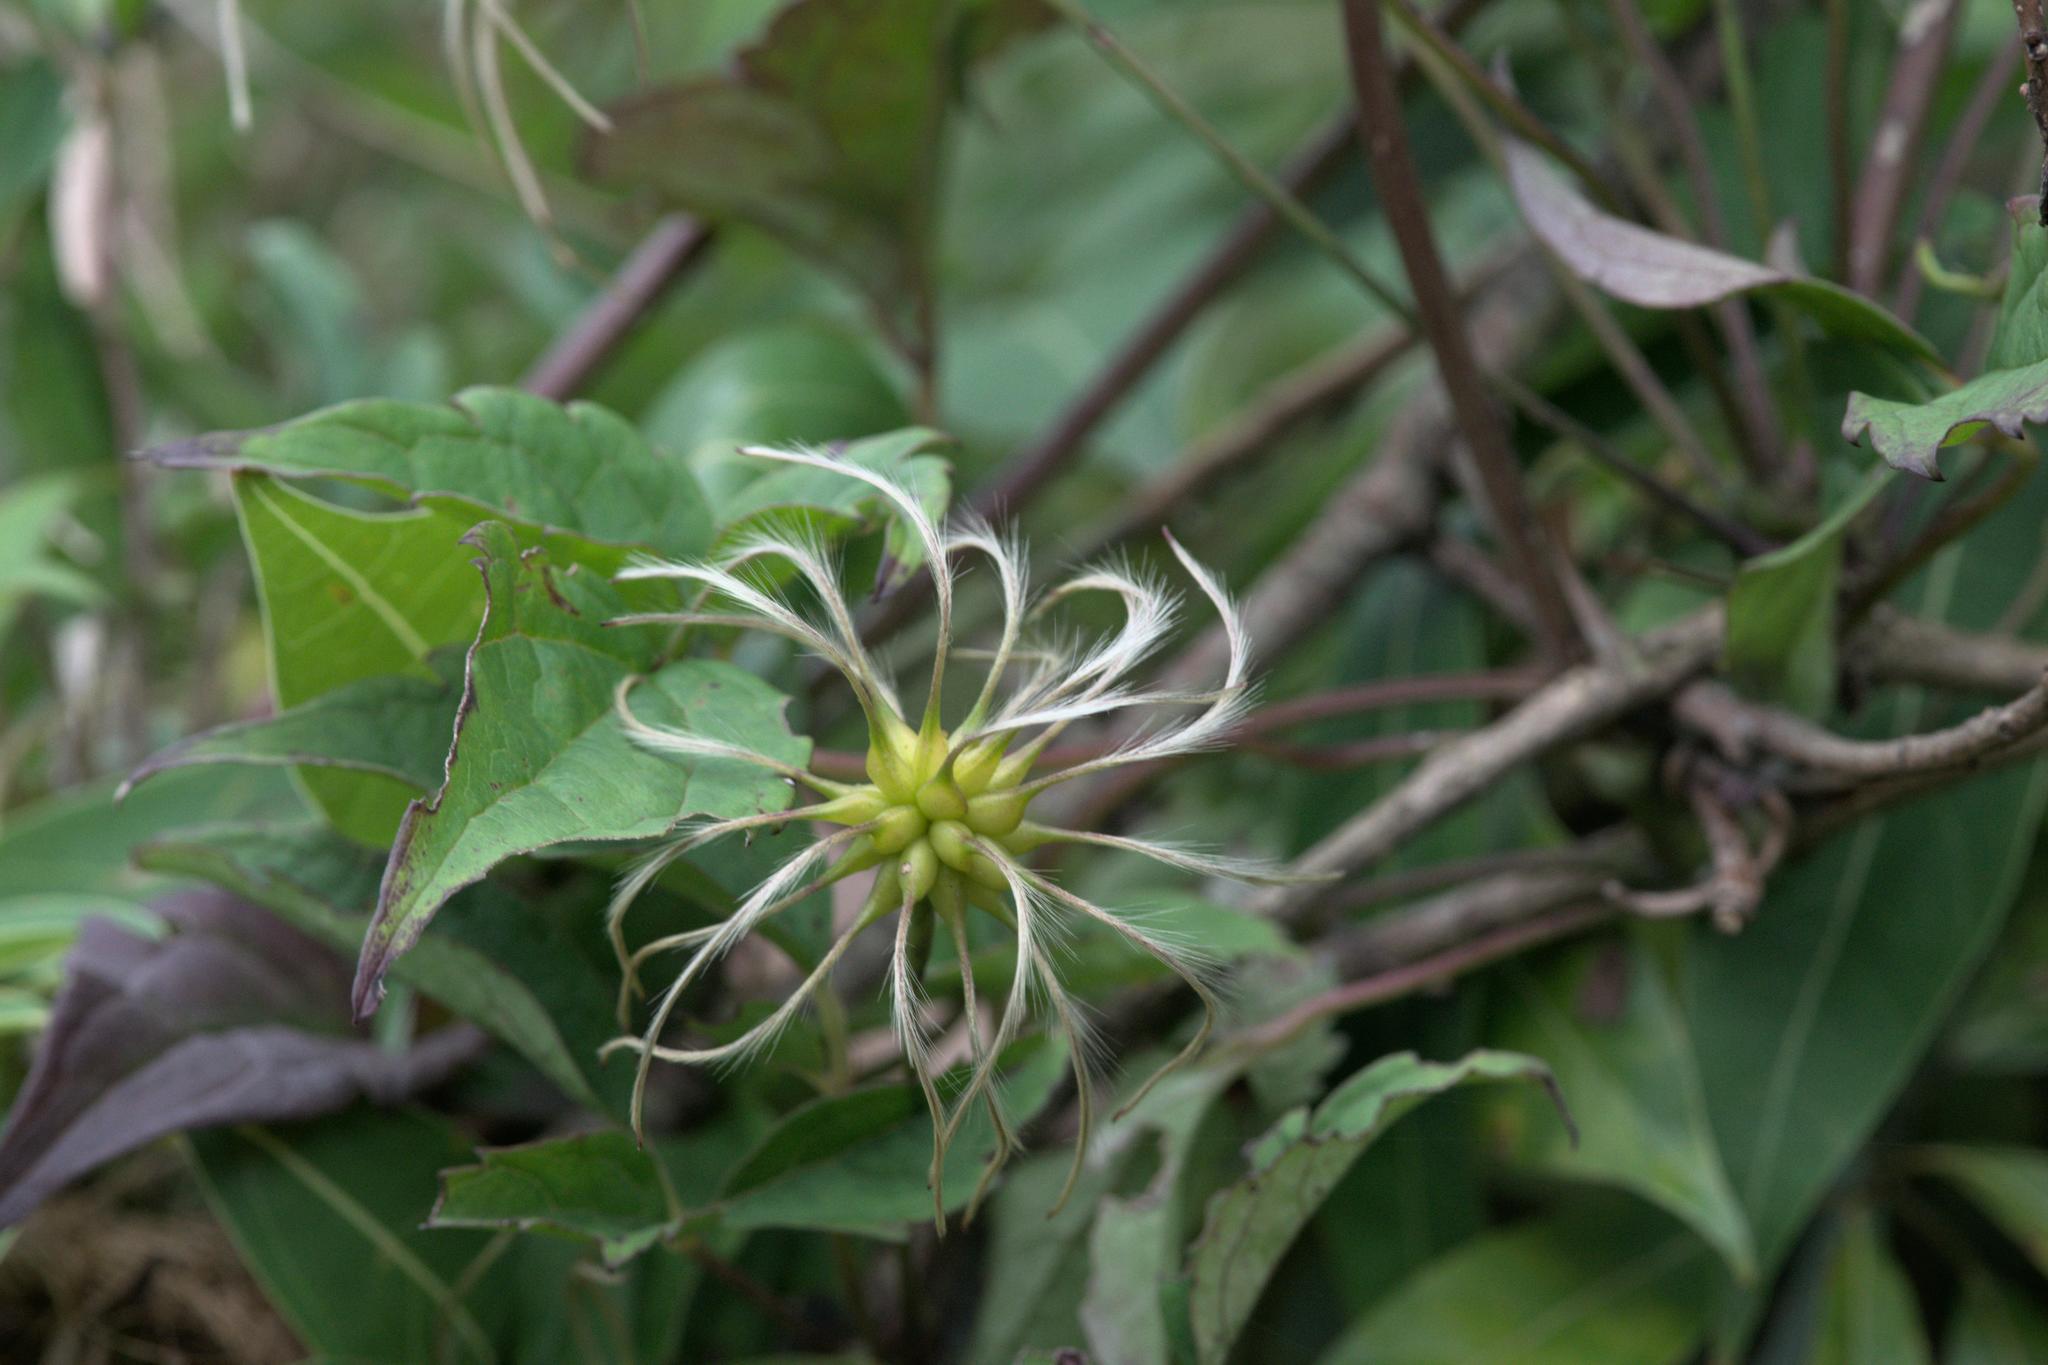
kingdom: Plantae
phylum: Tracheophyta
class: Magnoliopsida
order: Ranunculales
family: Ranunculaceae
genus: Clematis
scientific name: Clematis montana
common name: Himalayan clematis
